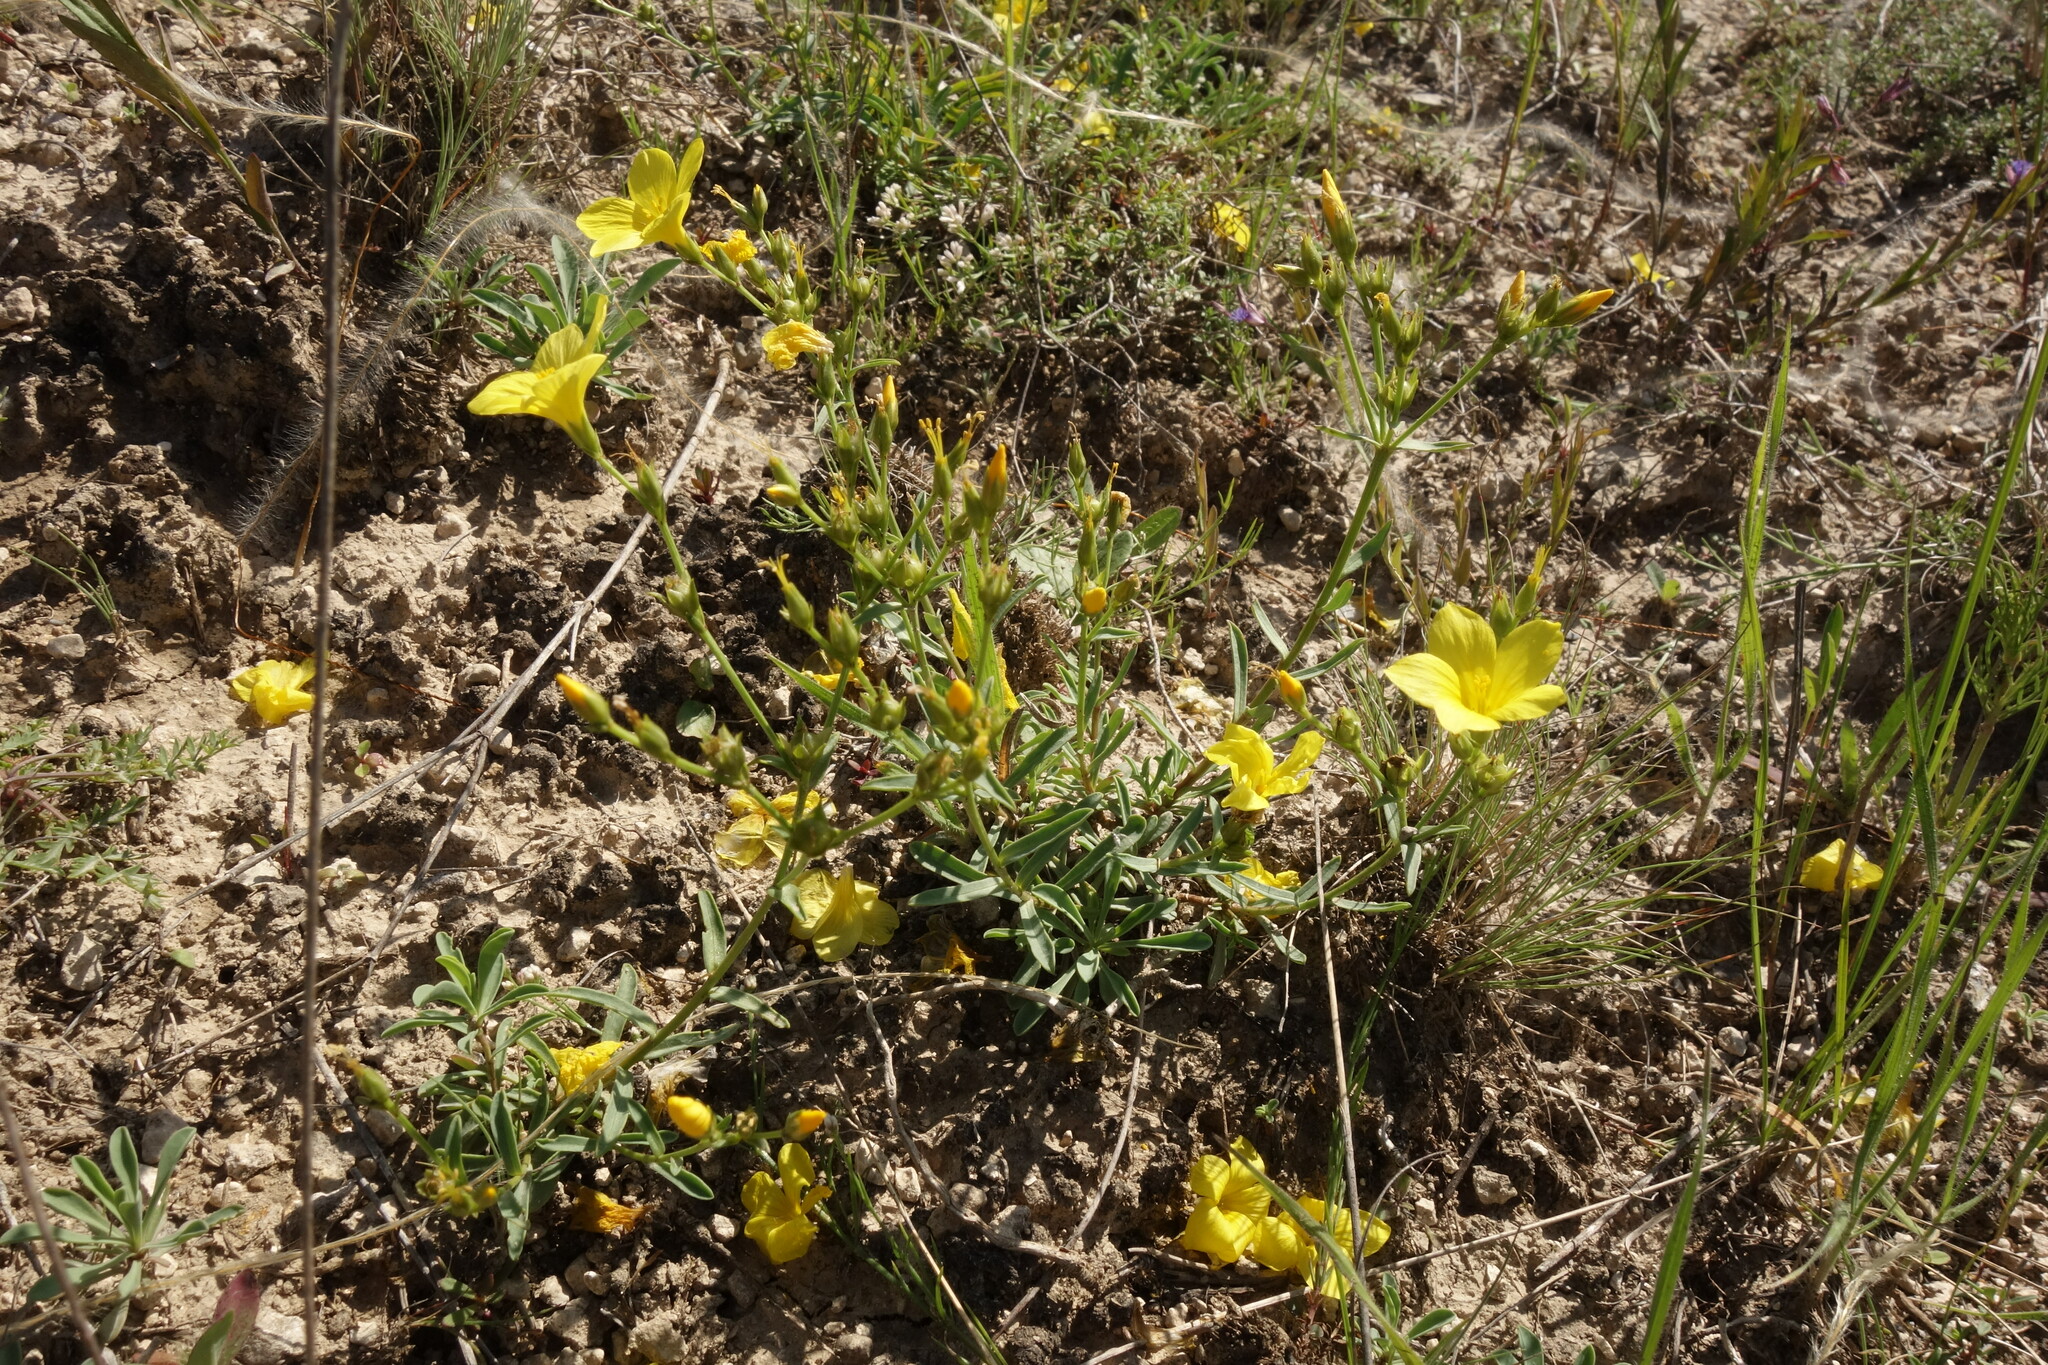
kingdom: Plantae
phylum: Tracheophyta
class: Magnoliopsida
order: Malpighiales
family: Linaceae
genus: Linum
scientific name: Linum ucranicum
